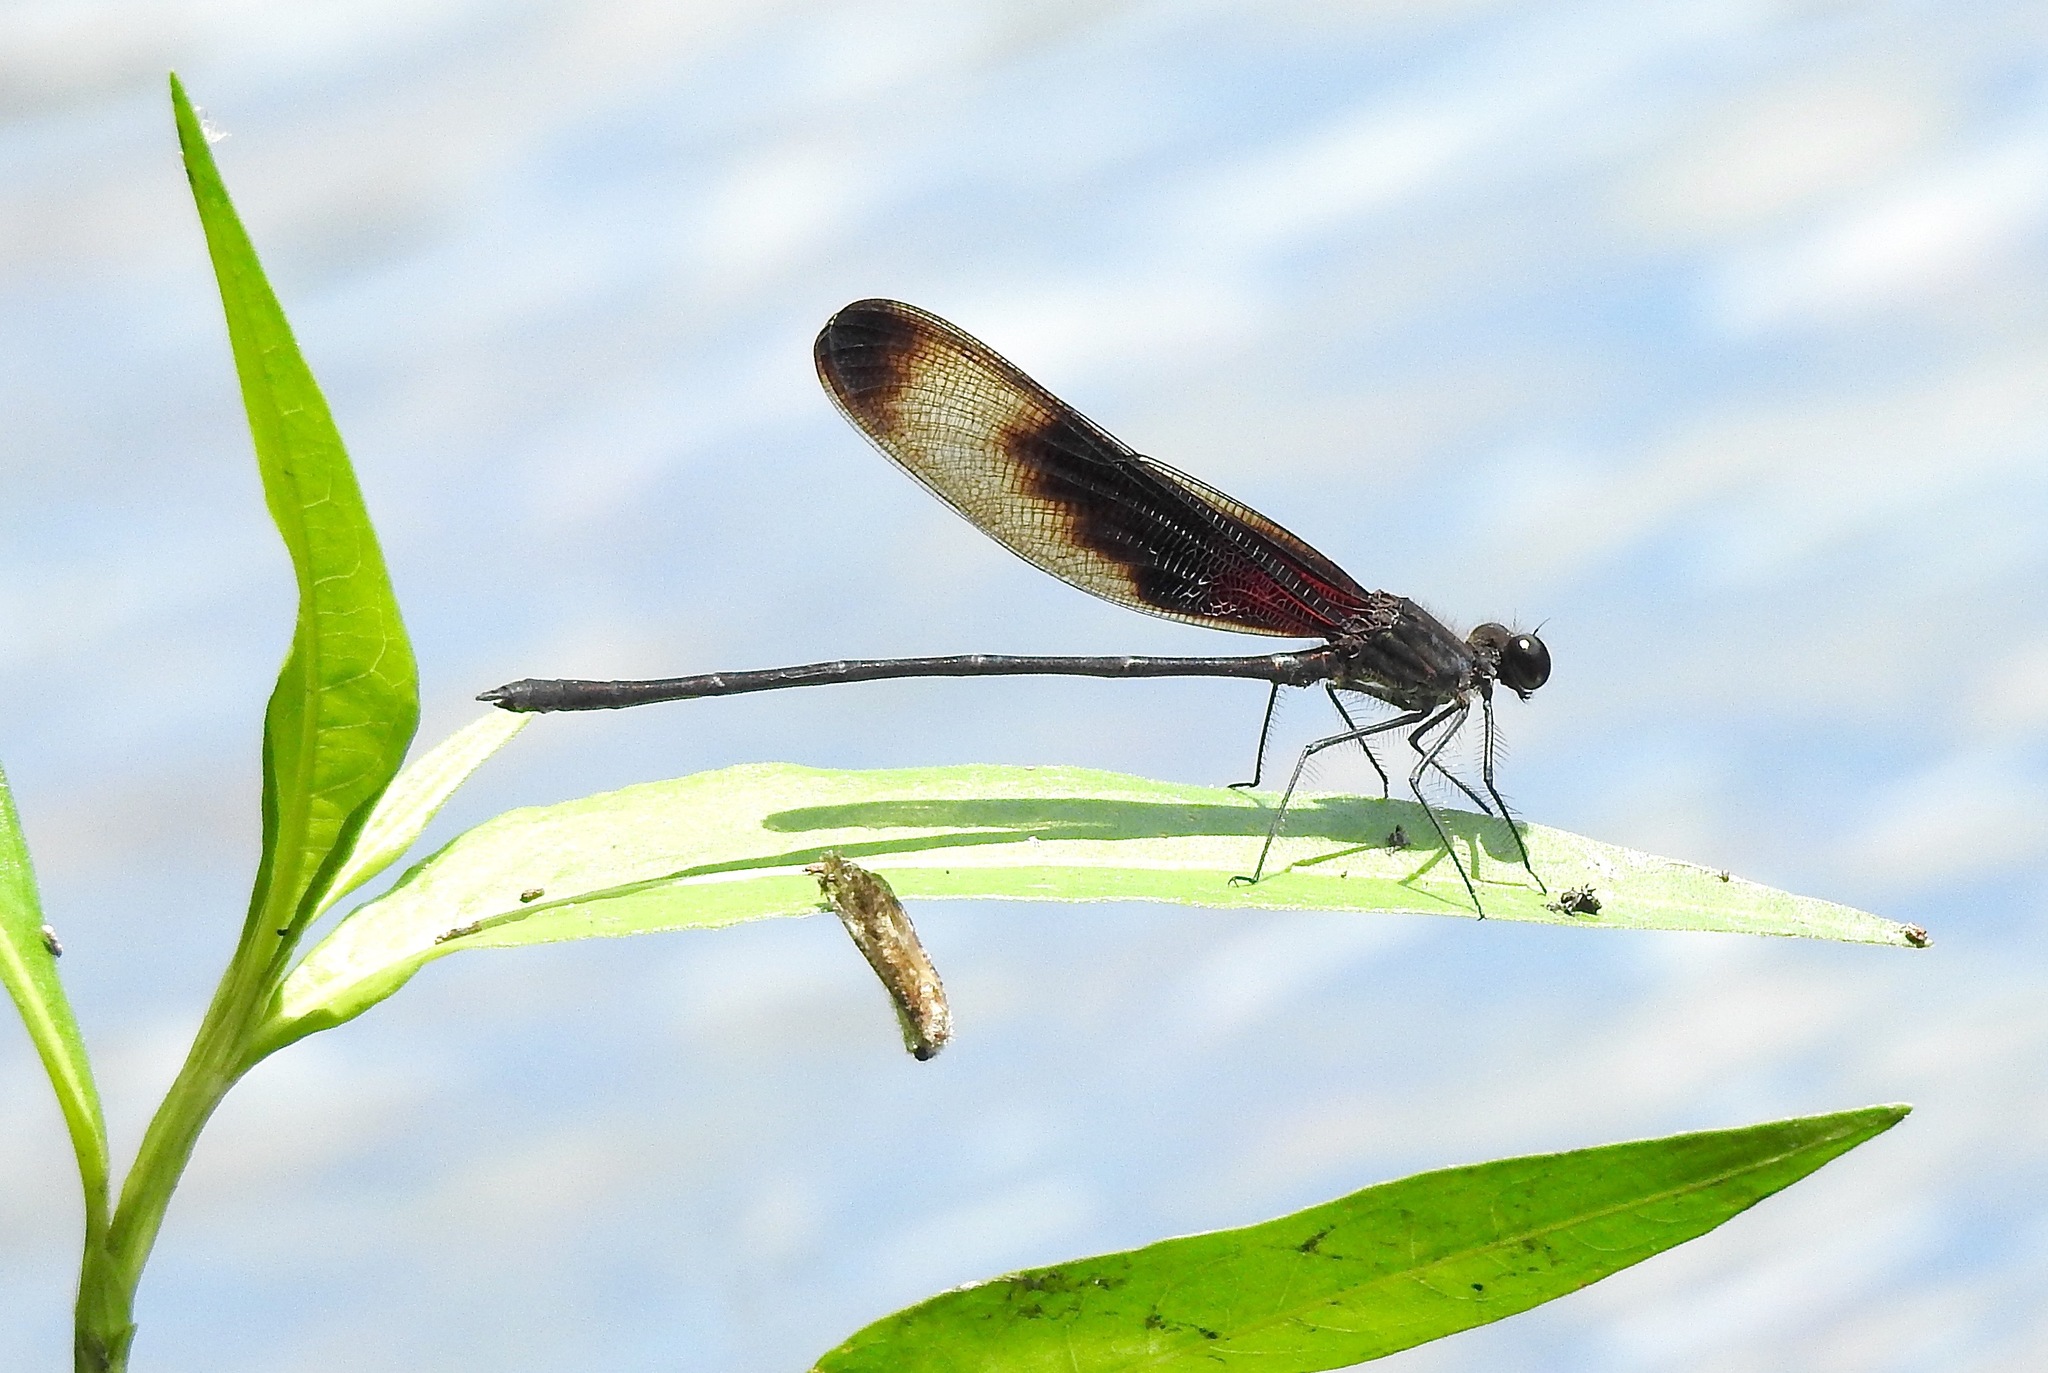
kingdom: Animalia
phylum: Arthropoda
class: Insecta
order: Odonata
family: Calopterygidae
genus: Hetaerina
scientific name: Hetaerina titia
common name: Smoky rubyspot
